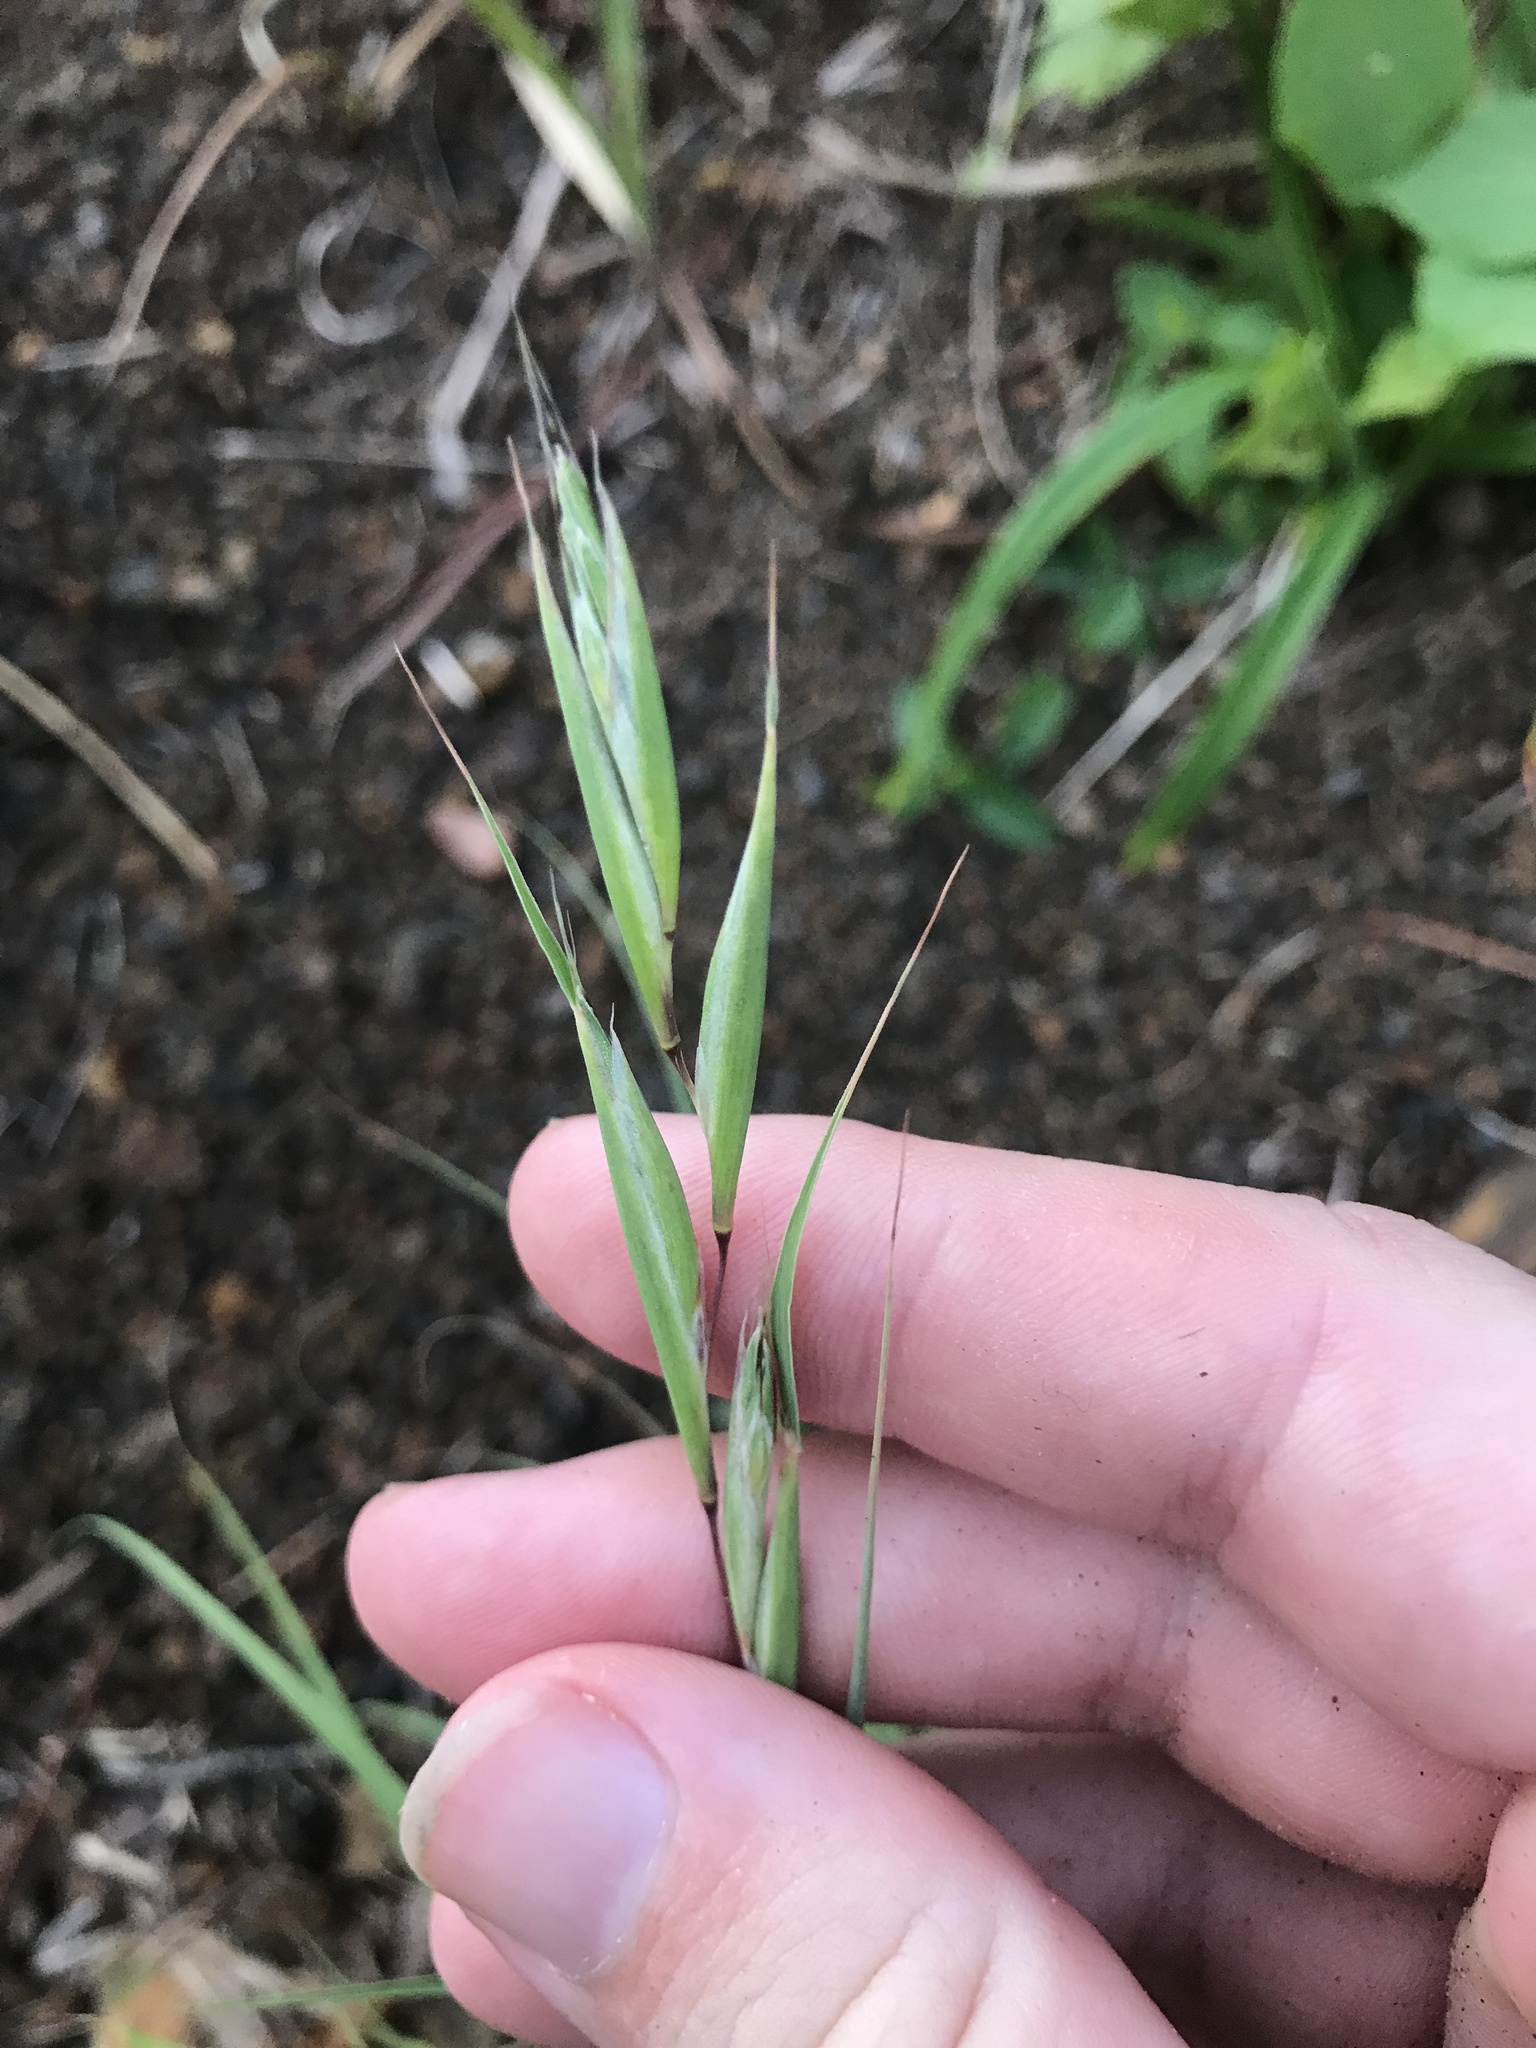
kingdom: Plantae
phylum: Tracheophyta
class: Liliopsida
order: Poales
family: Poaceae
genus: Themeda
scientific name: Themeda triandra
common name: Kangaroo grass
